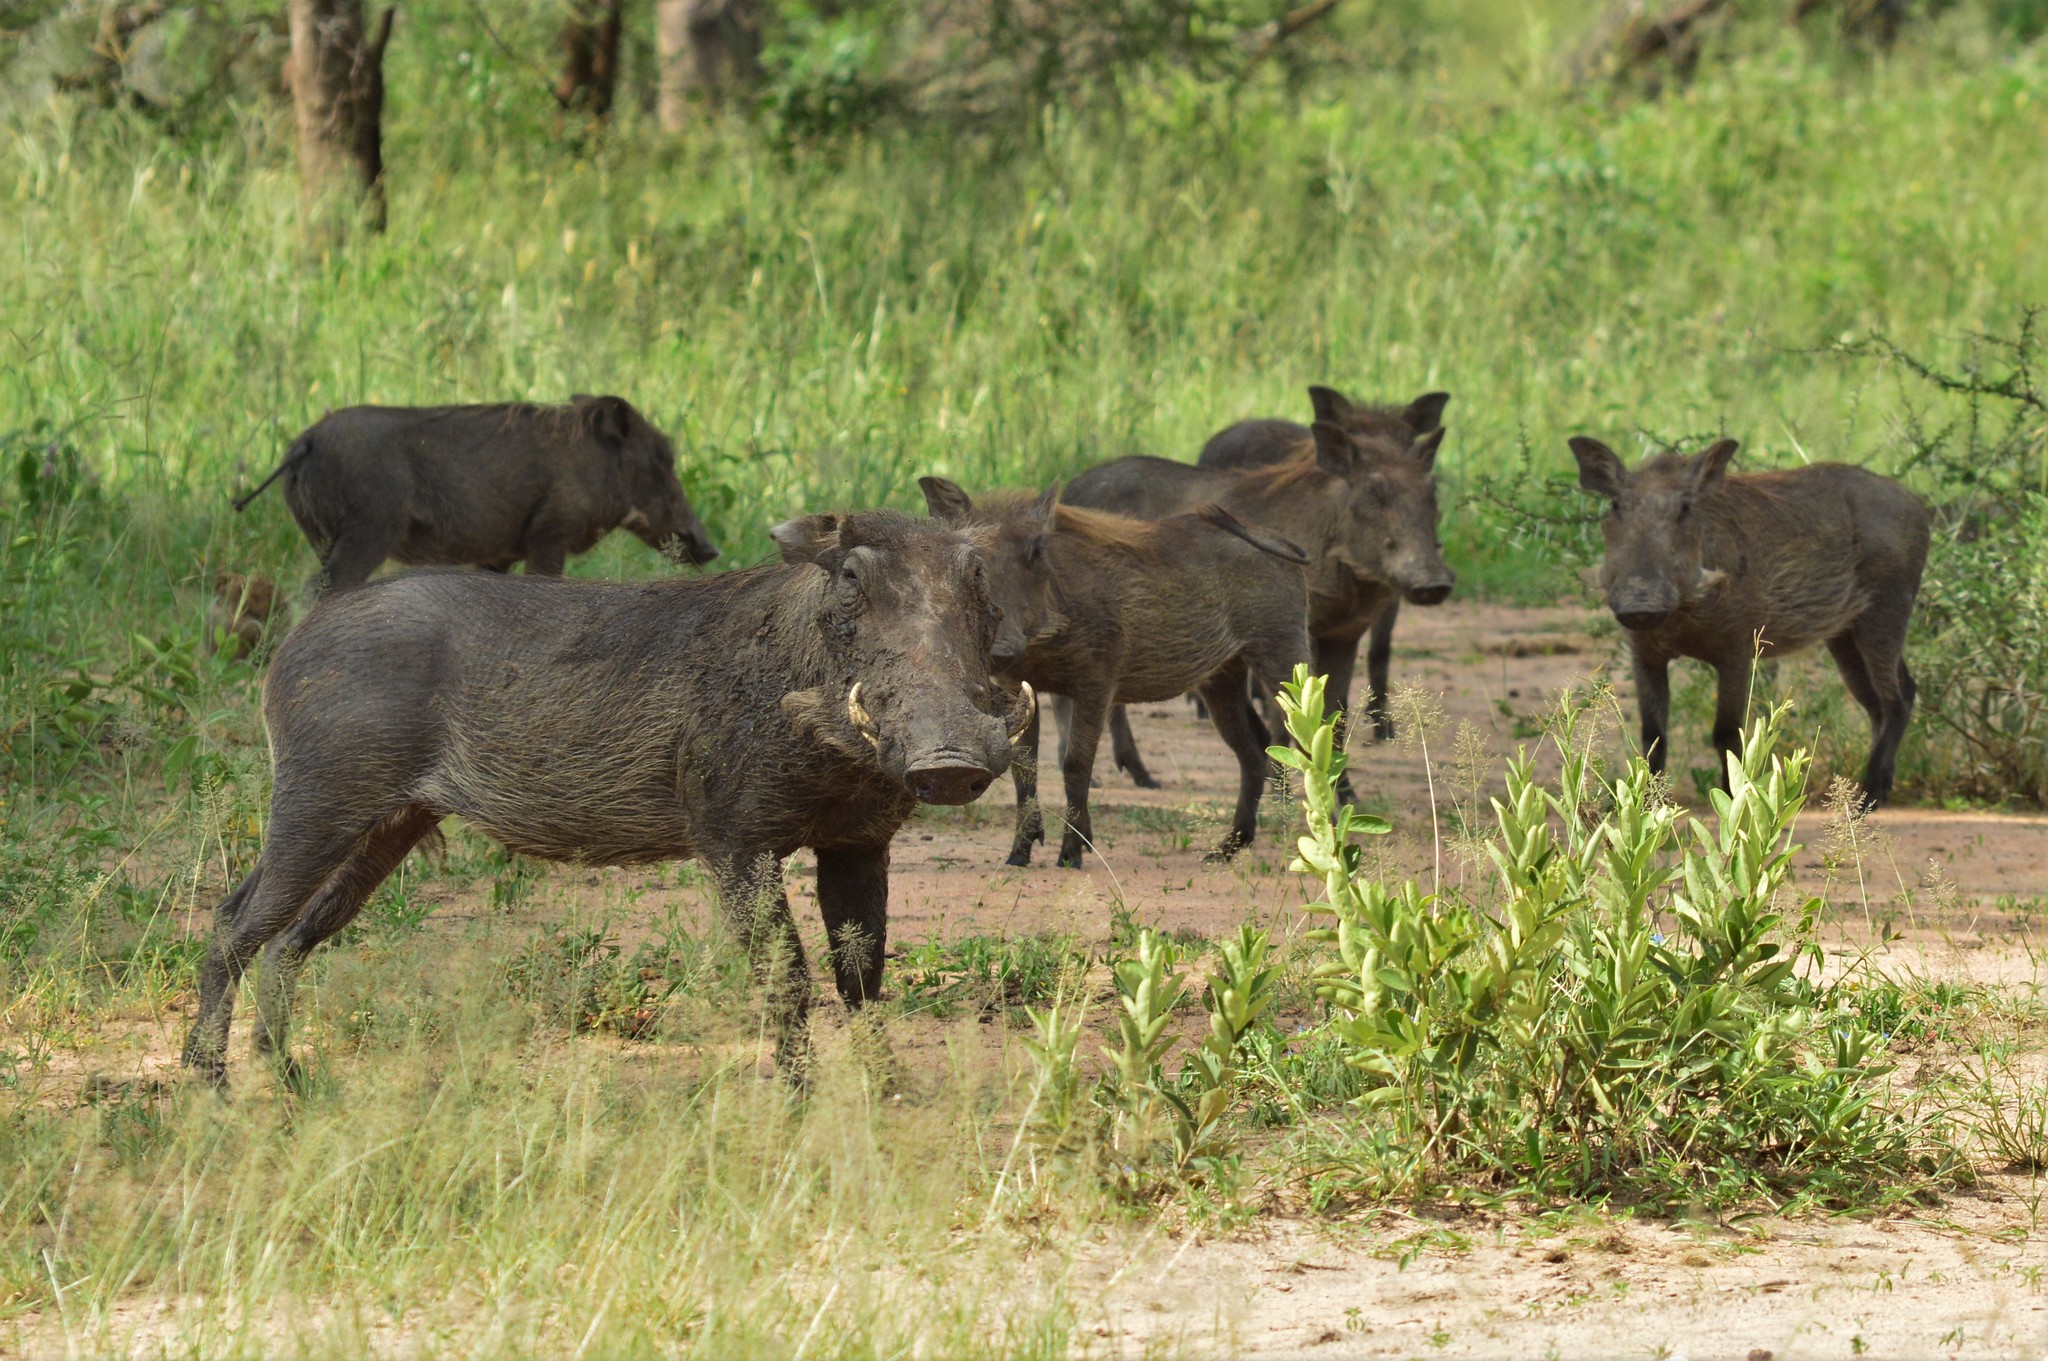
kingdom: Animalia
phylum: Chordata
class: Mammalia
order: Artiodactyla
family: Suidae
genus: Phacochoerus
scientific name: Phacochoerus africanus
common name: Common warthog
